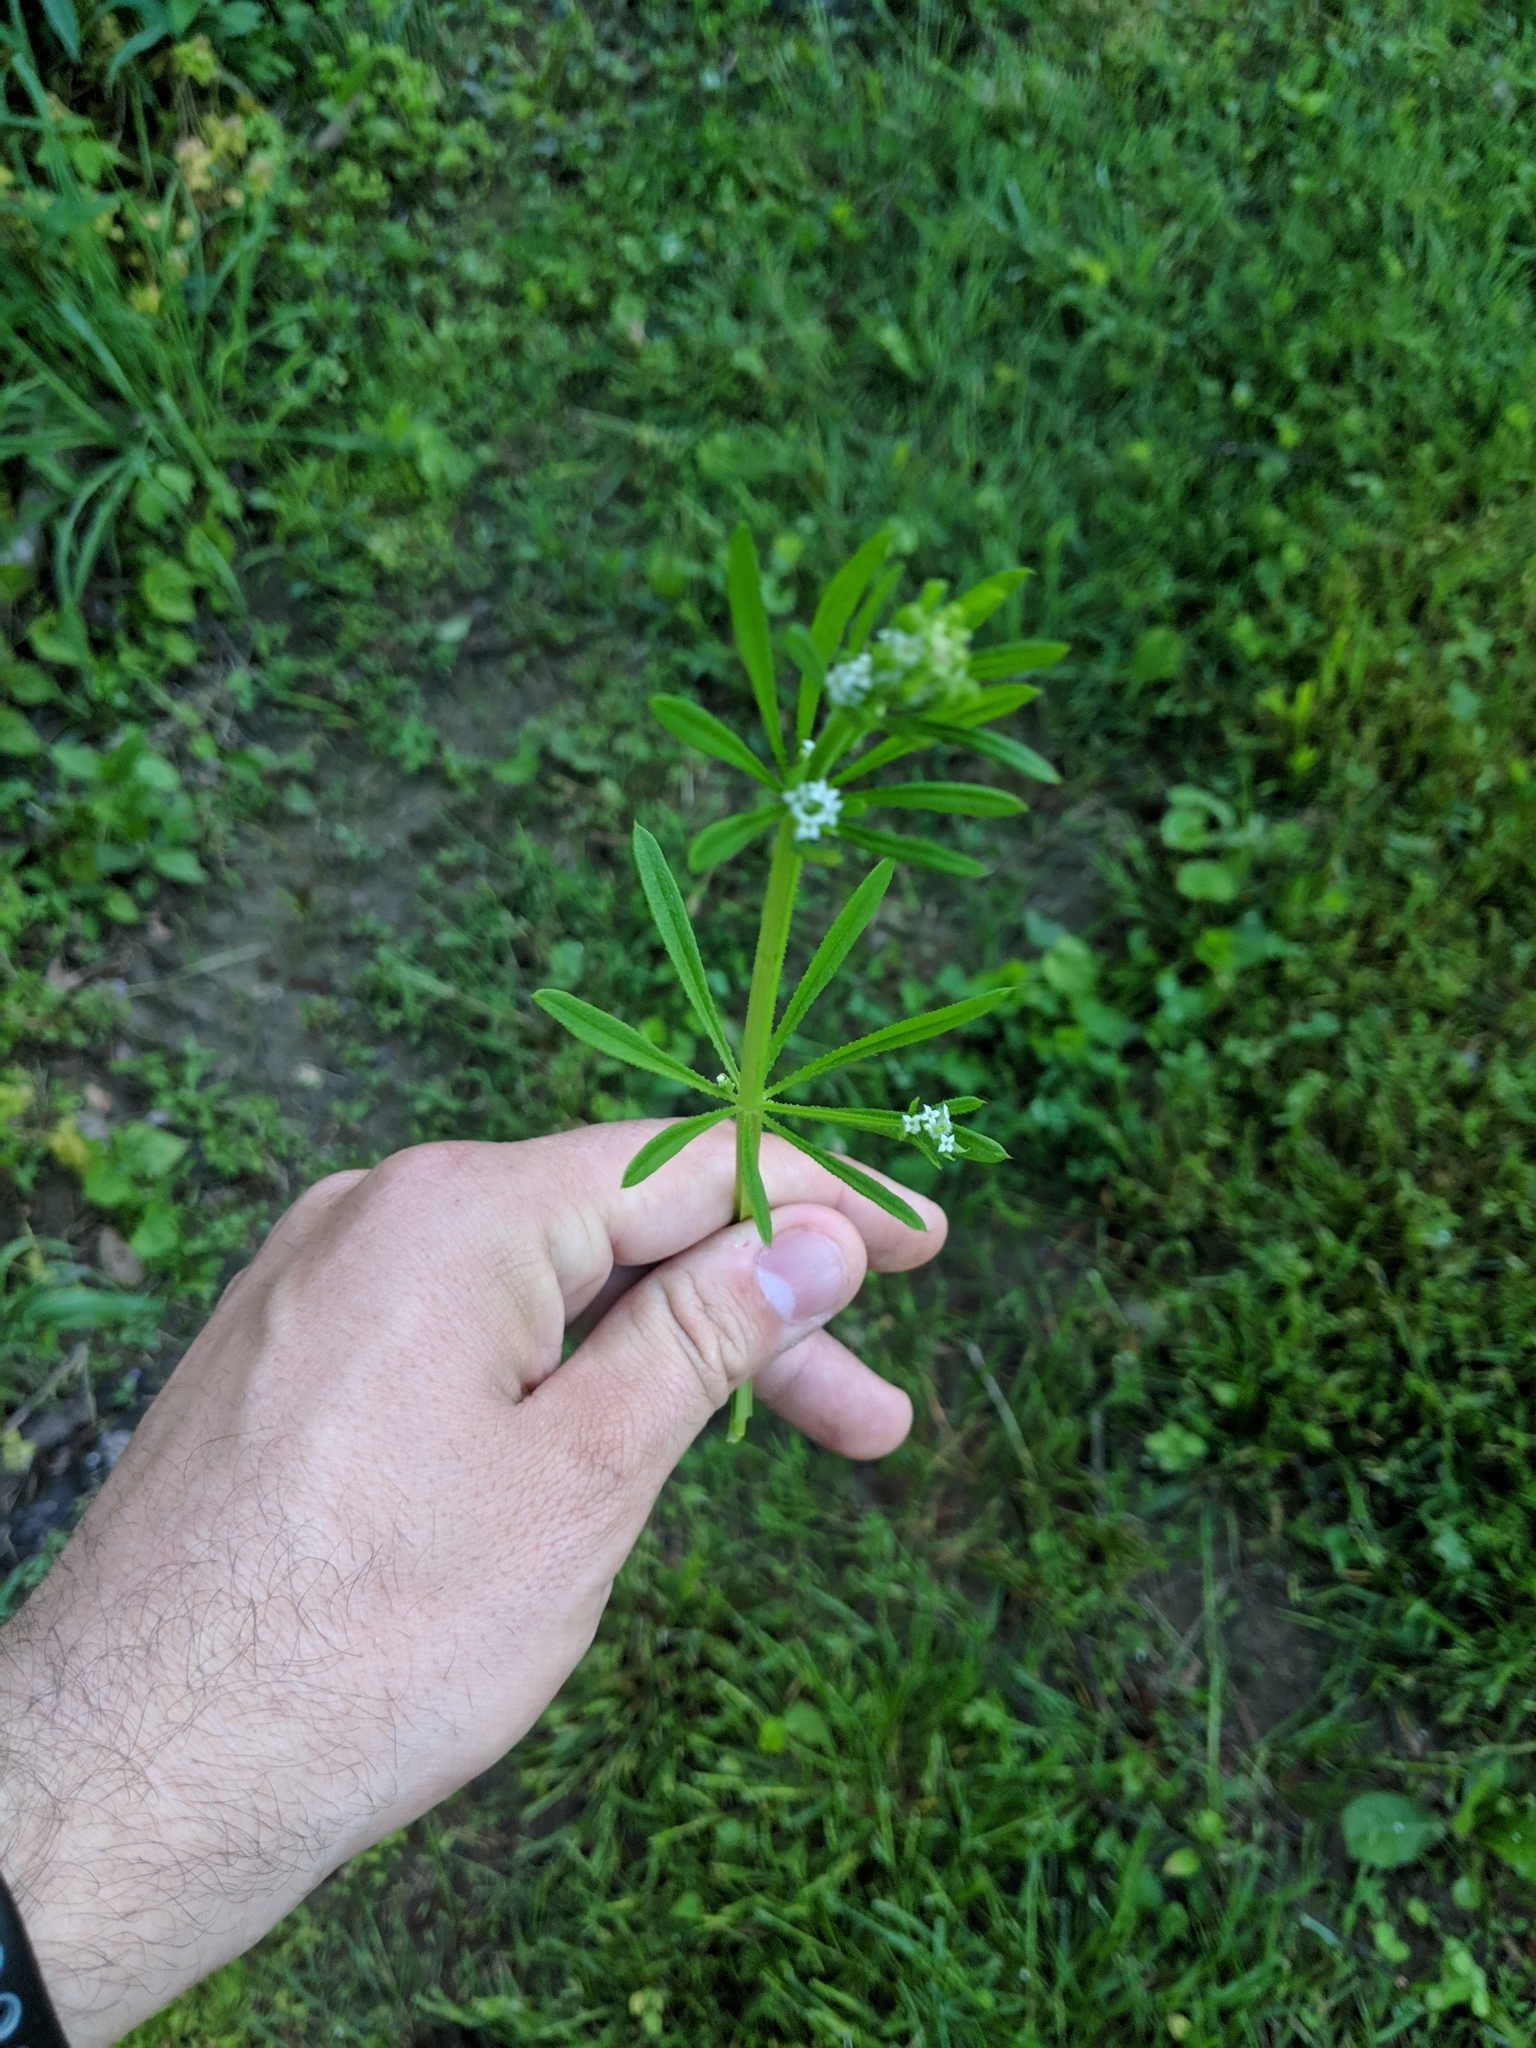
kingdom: Plantae
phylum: Tracheophyta
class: Magnoliopsida
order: Gentianales
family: Rubiaceae
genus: Galium
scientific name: Galium aparine
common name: Cleavers
